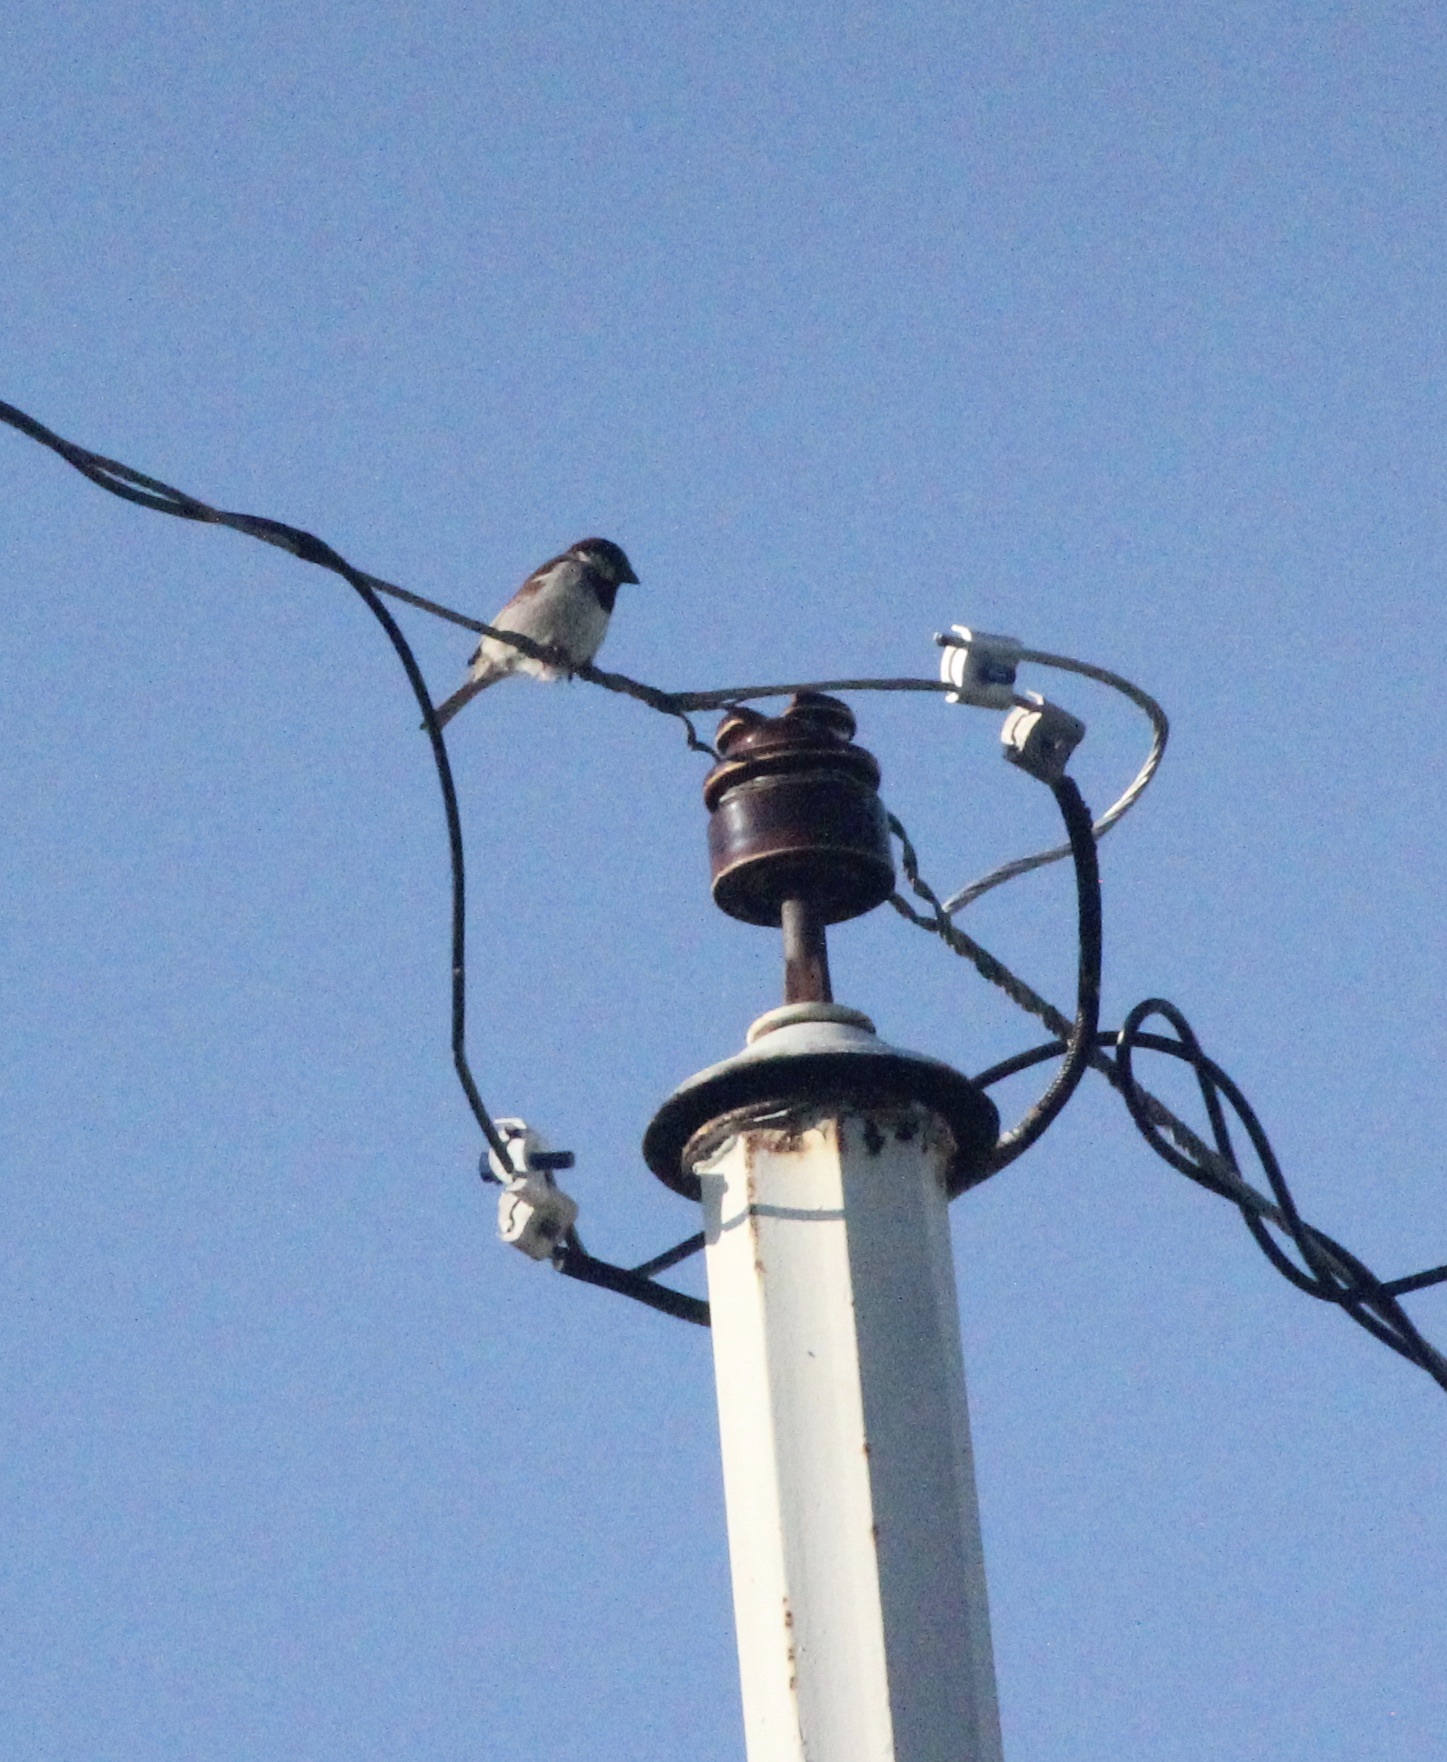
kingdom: Animalia
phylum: Chordata
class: Aves
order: Passeriformes
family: Passeridae
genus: Passer
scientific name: Passer domesticus
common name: House sparrow
